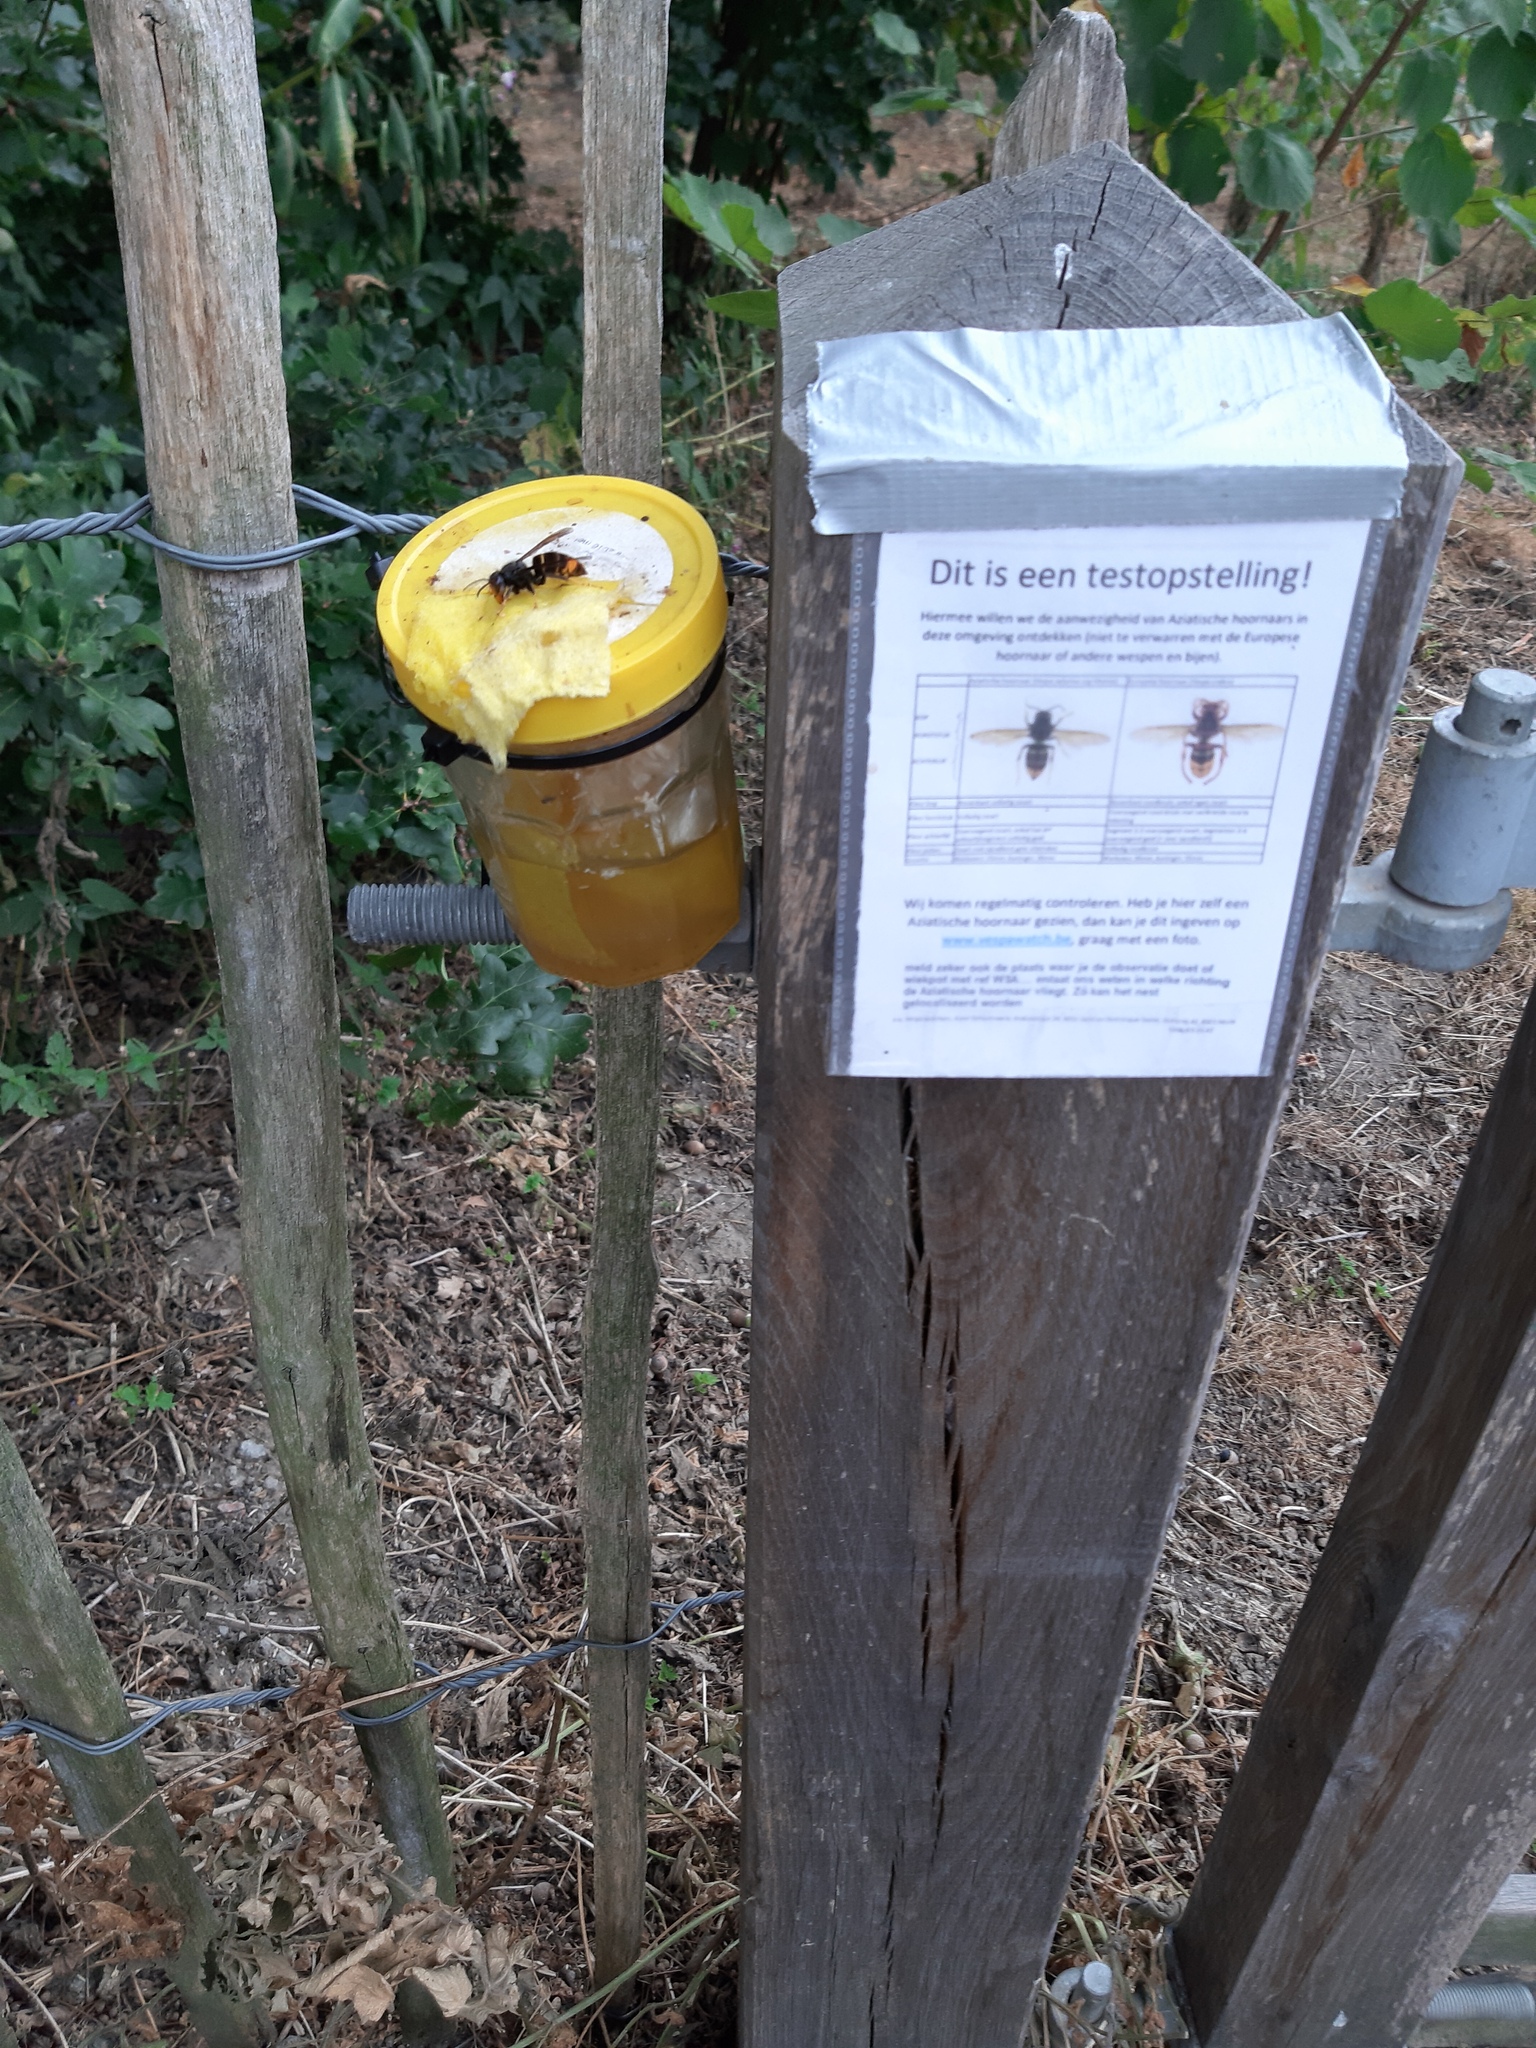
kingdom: Animalia
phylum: Arthropoda
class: Insecta
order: Hymenoptera
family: Vespidae
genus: Vespa
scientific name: Vespa velutina
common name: Asian hornet
